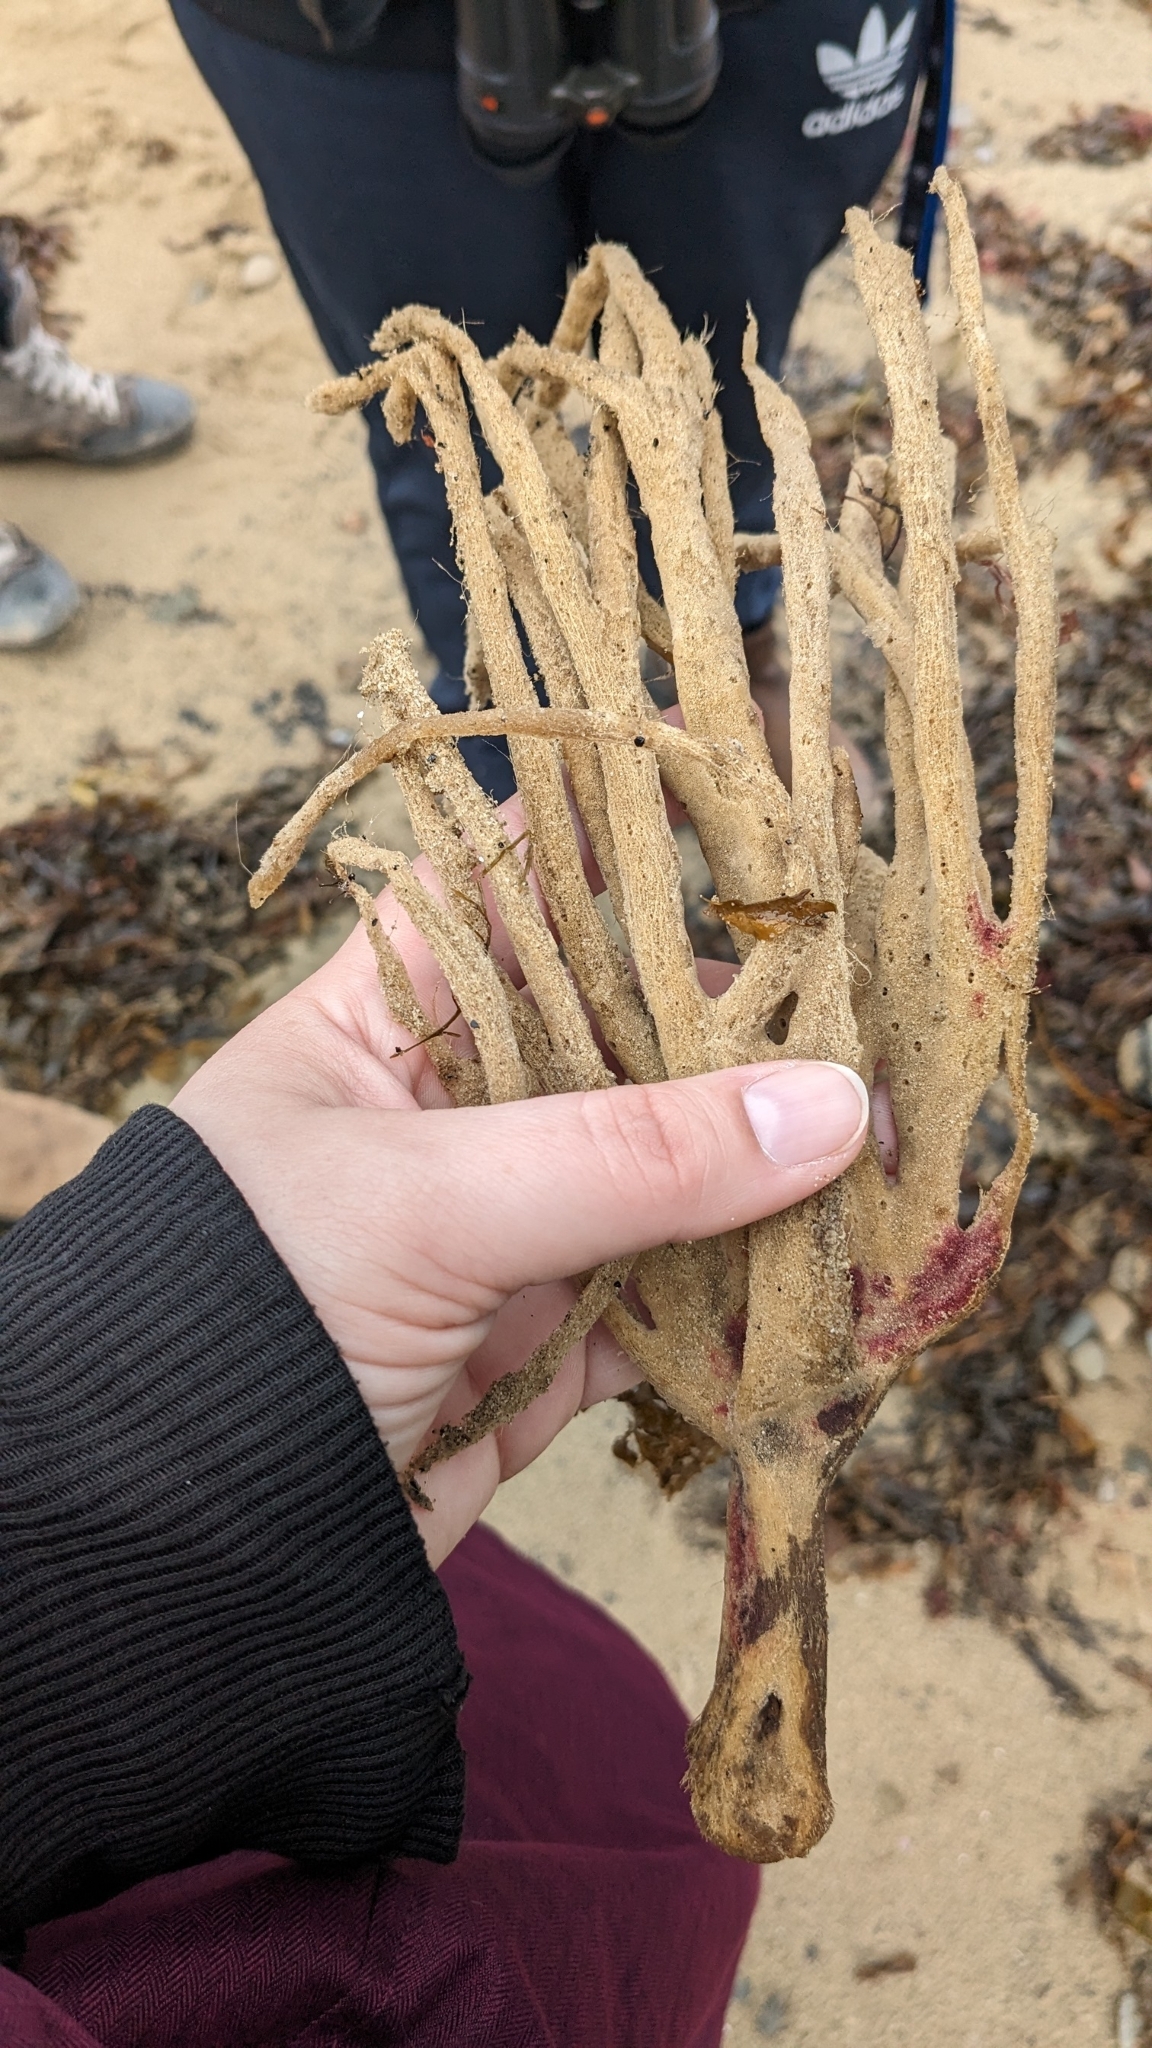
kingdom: Animalia
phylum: Porifera
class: Demospongiae
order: Haplosclerida
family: Chalinidae
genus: Haliclona
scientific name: Haliclona oculata
